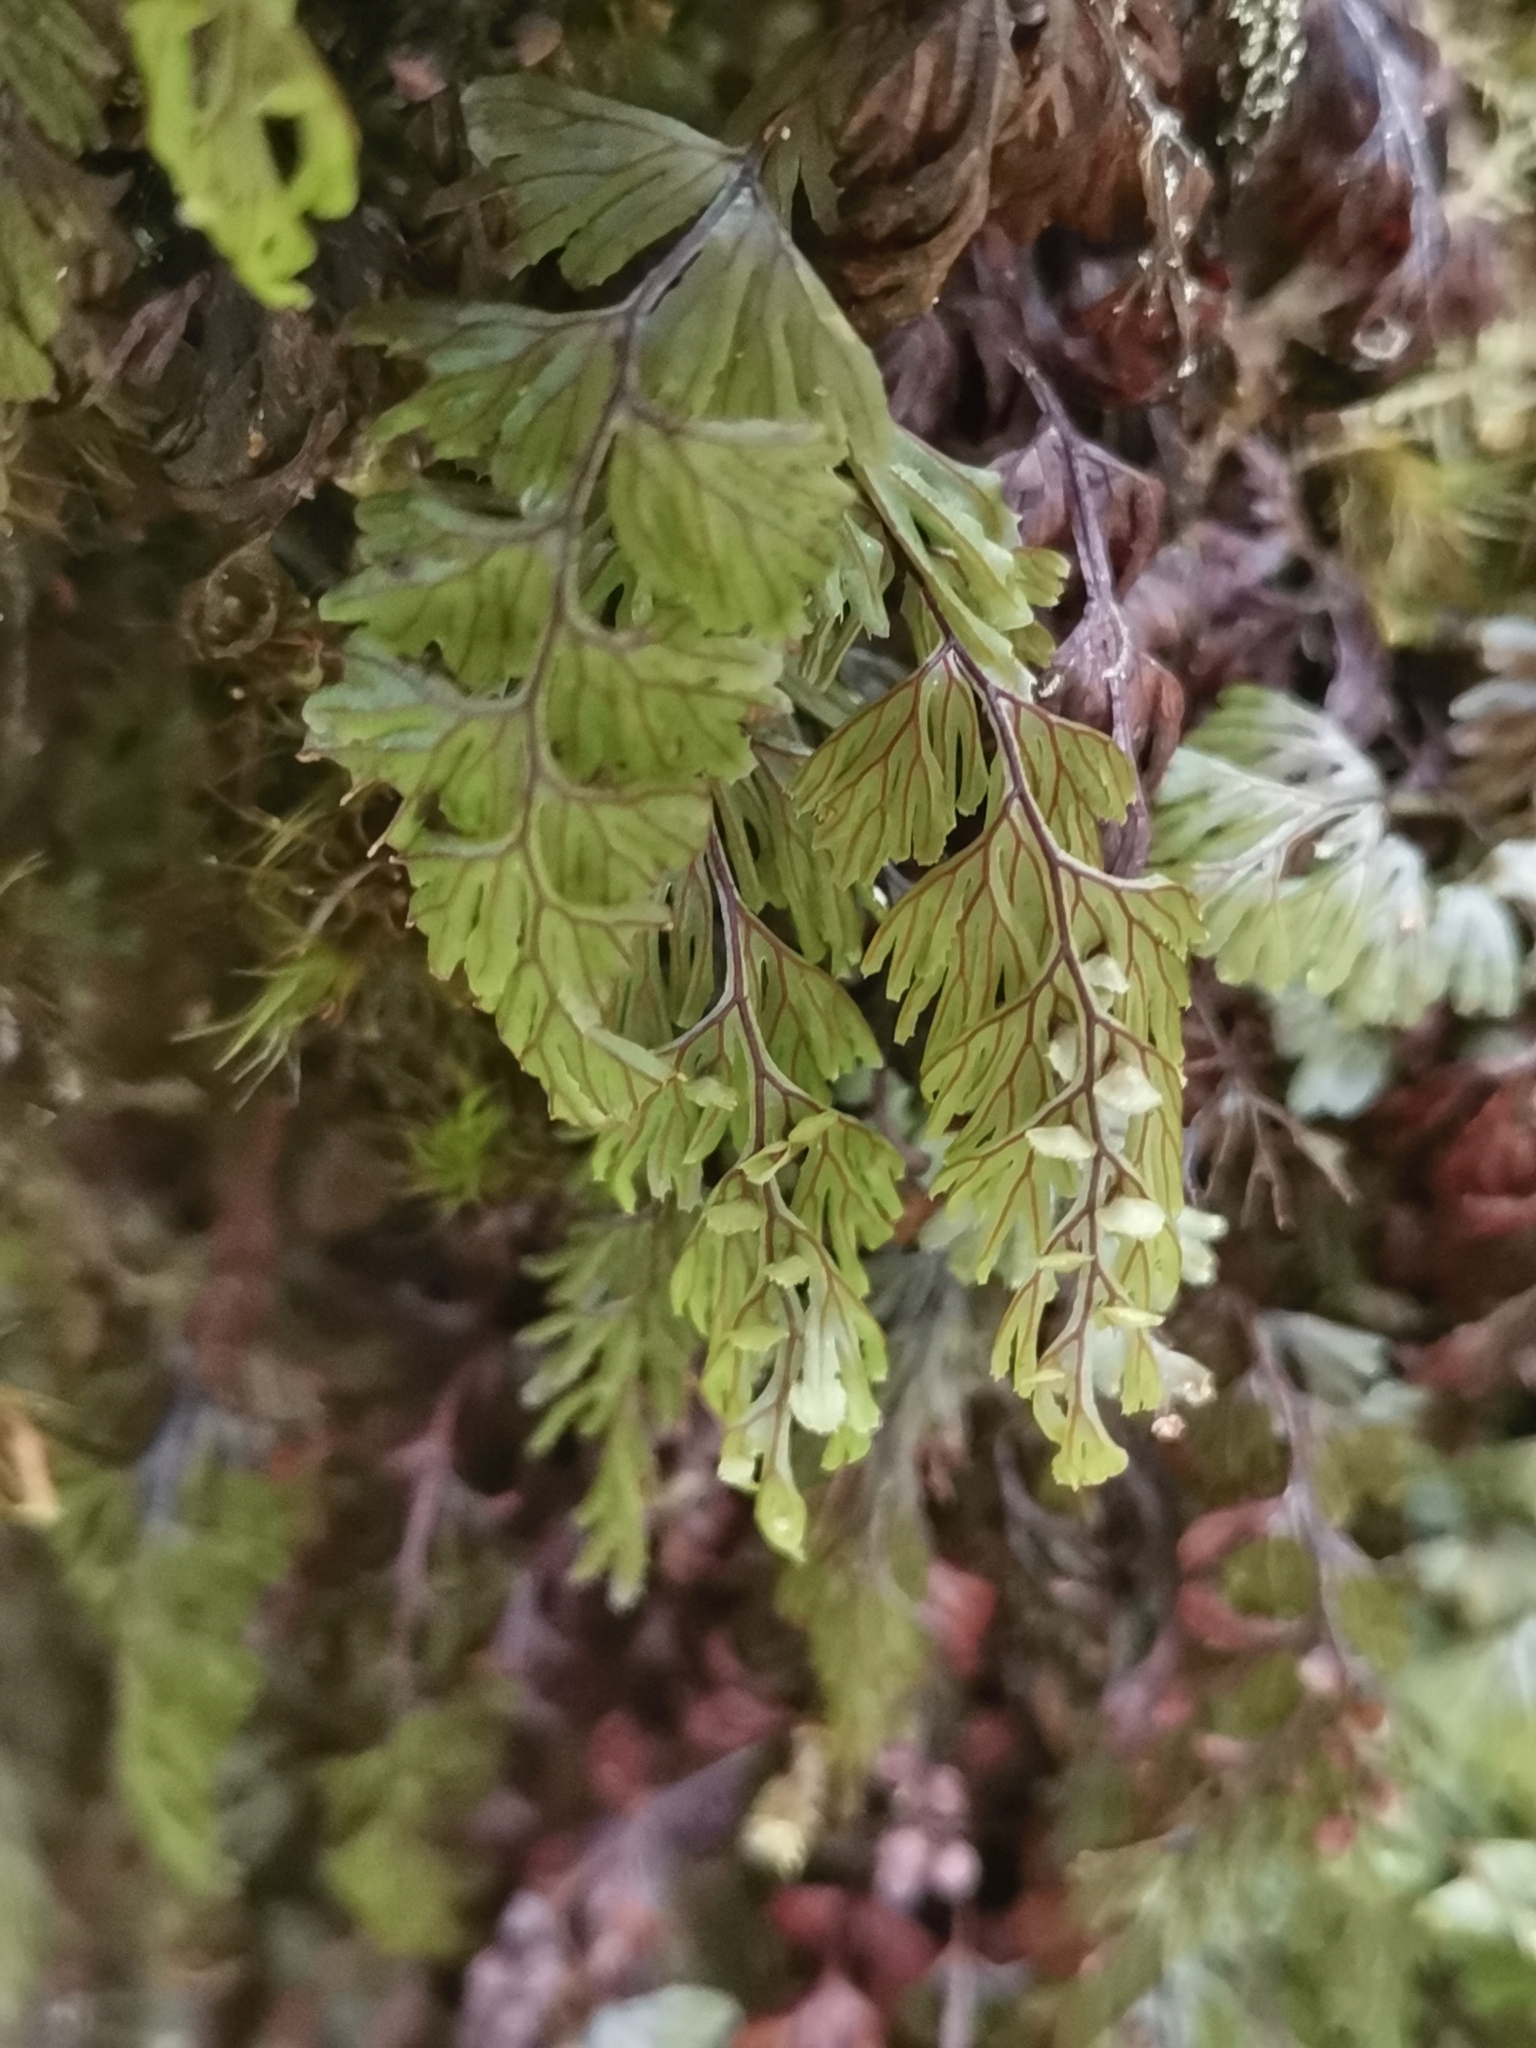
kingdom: Plantae
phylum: Tracheophyta
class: Polypodiopsida
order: Hymenophyllales
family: Hymenophyllaceae
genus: Hymenophyllum
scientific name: Hymenophyllum tunbrigense
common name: Tunbridge filmy fern
